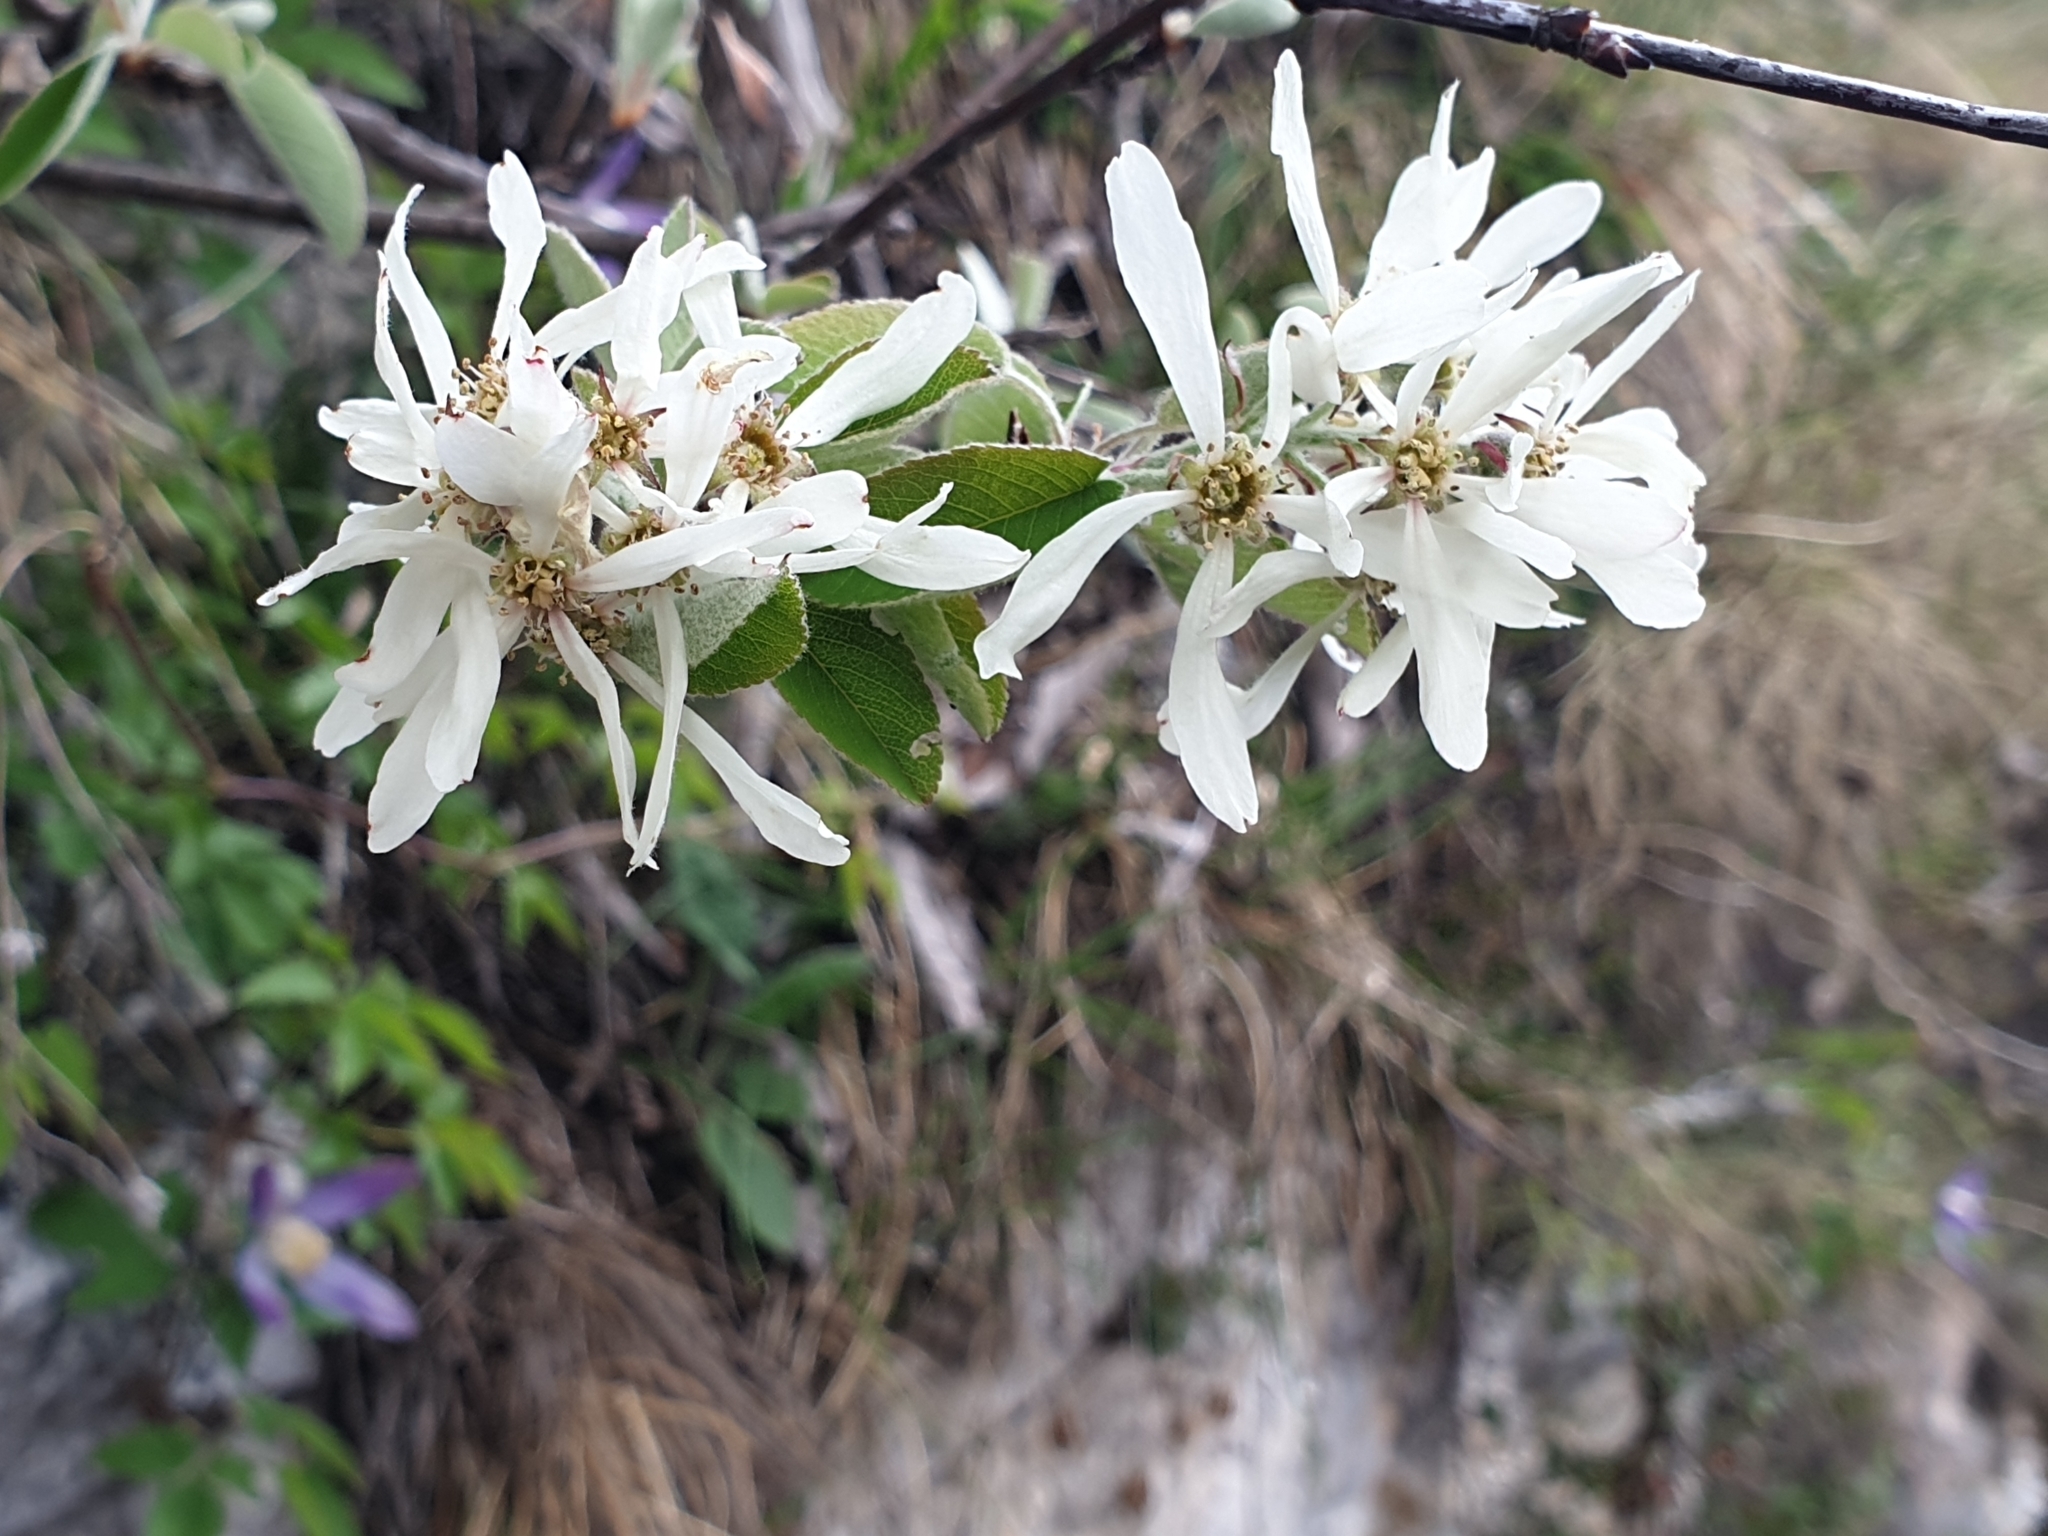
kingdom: Plantae
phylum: Tracheophyta
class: Magnoliopsida
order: Rosales
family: Rosaceae
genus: Amelanchier
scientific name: Amelanchier ovalis
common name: Serviceberry
